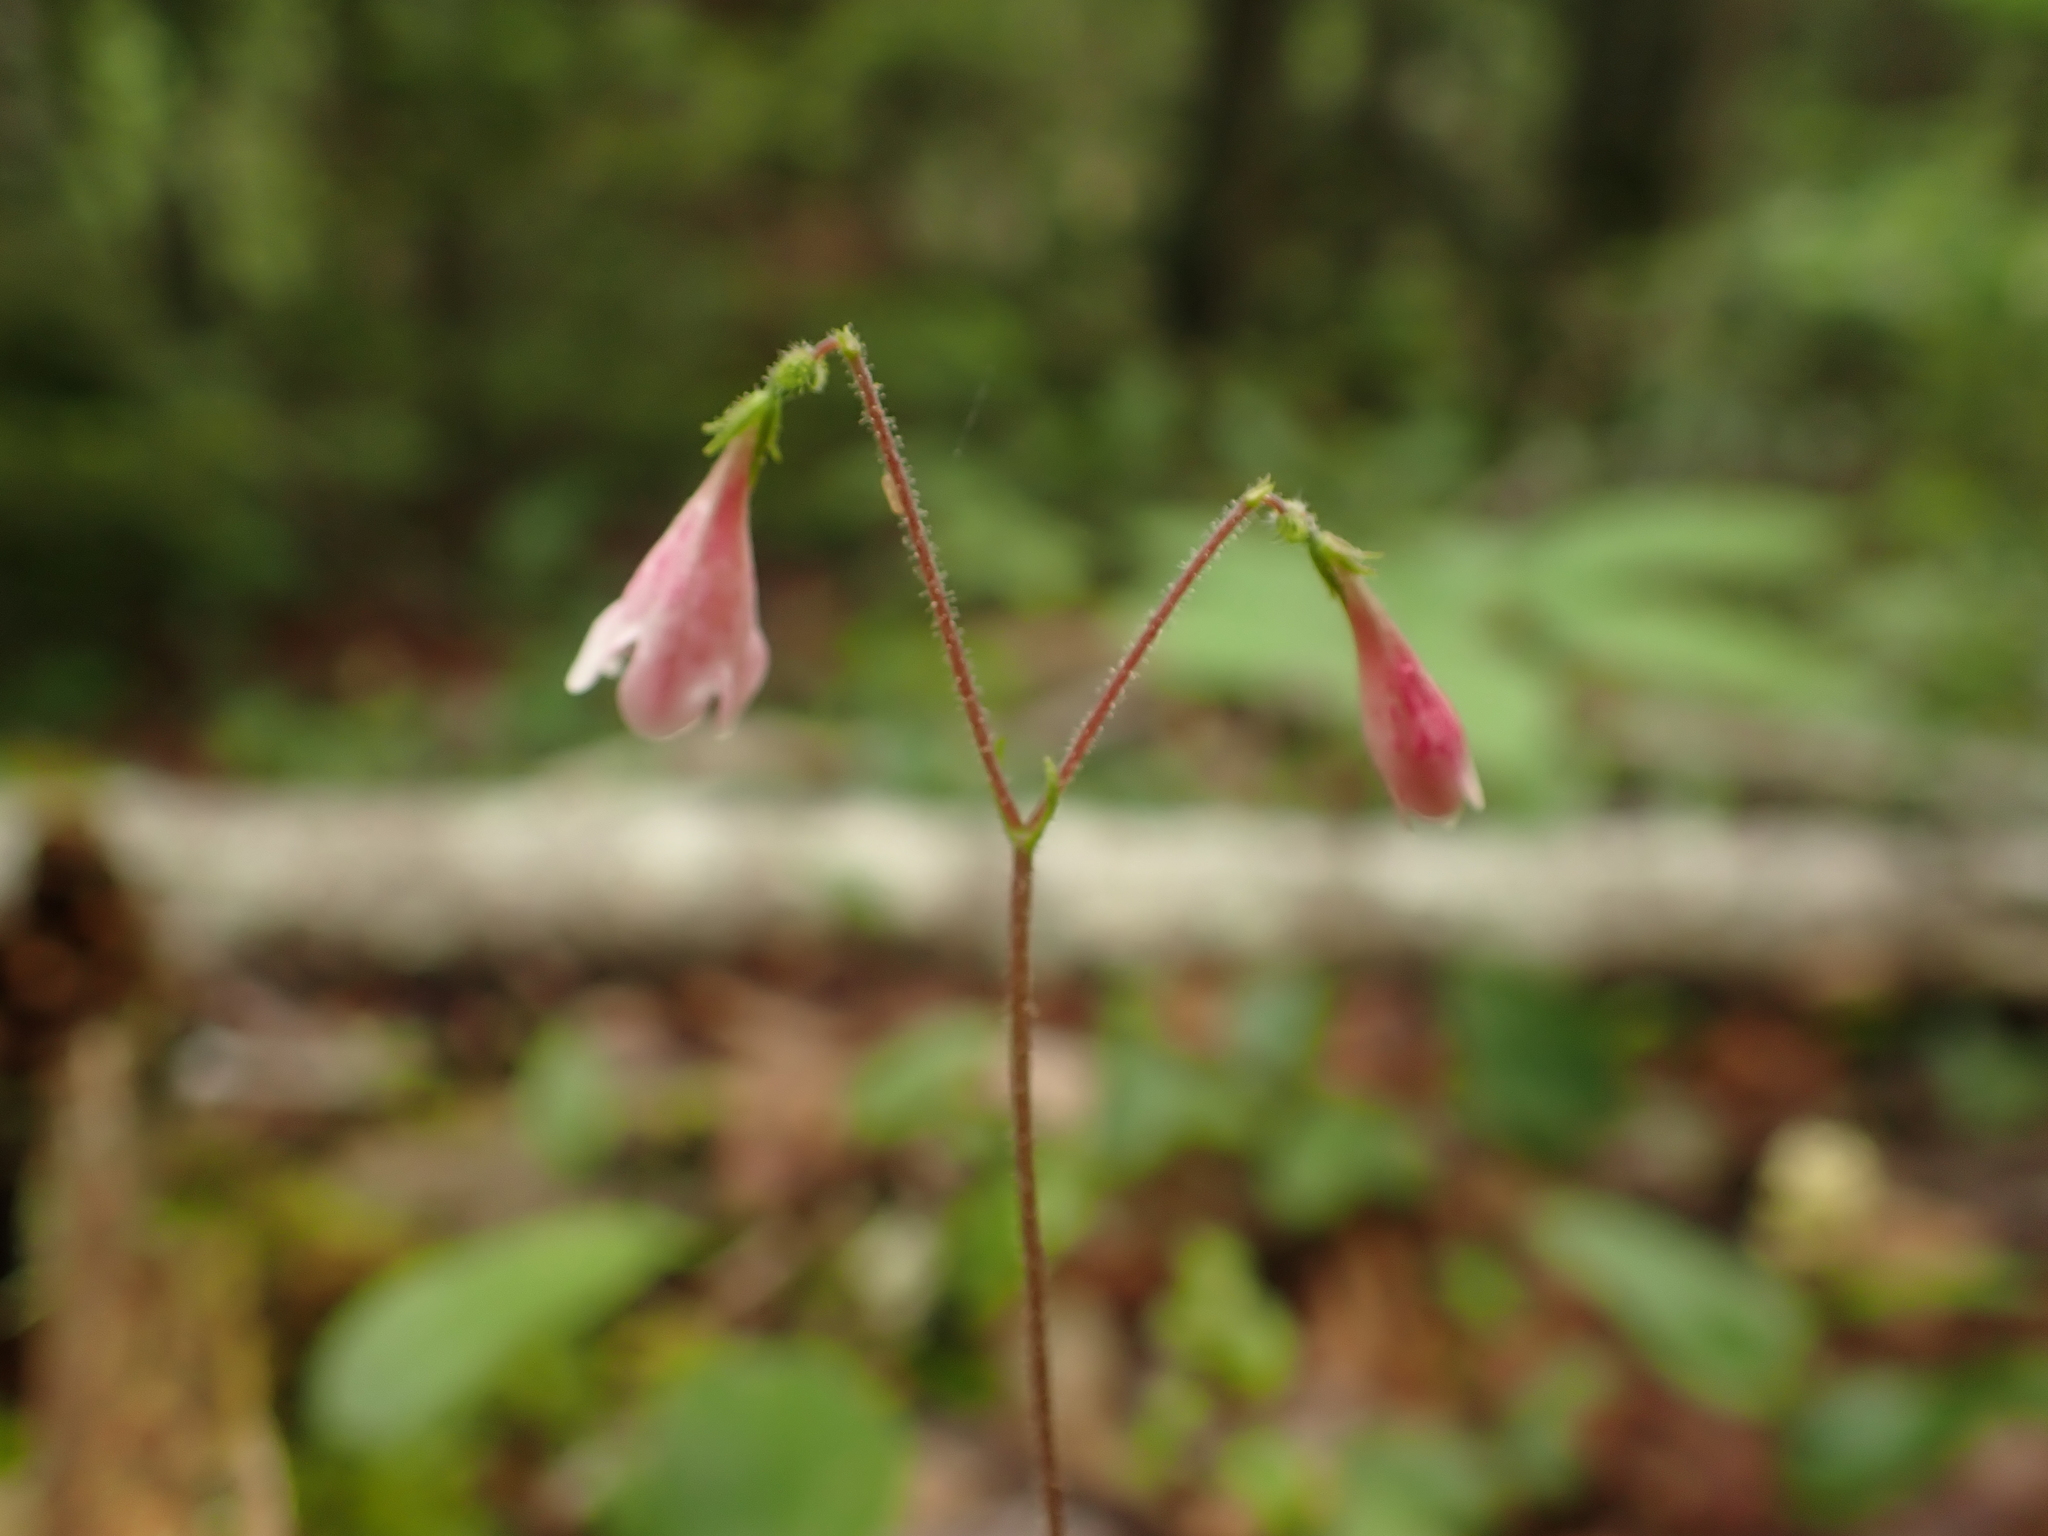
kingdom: Plantae
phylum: Tracheophyta
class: Magnoliopsida
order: Dipsacales
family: Caprifoliaceae
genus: Linnaea
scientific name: Linnaea borealis
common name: Twinflower
